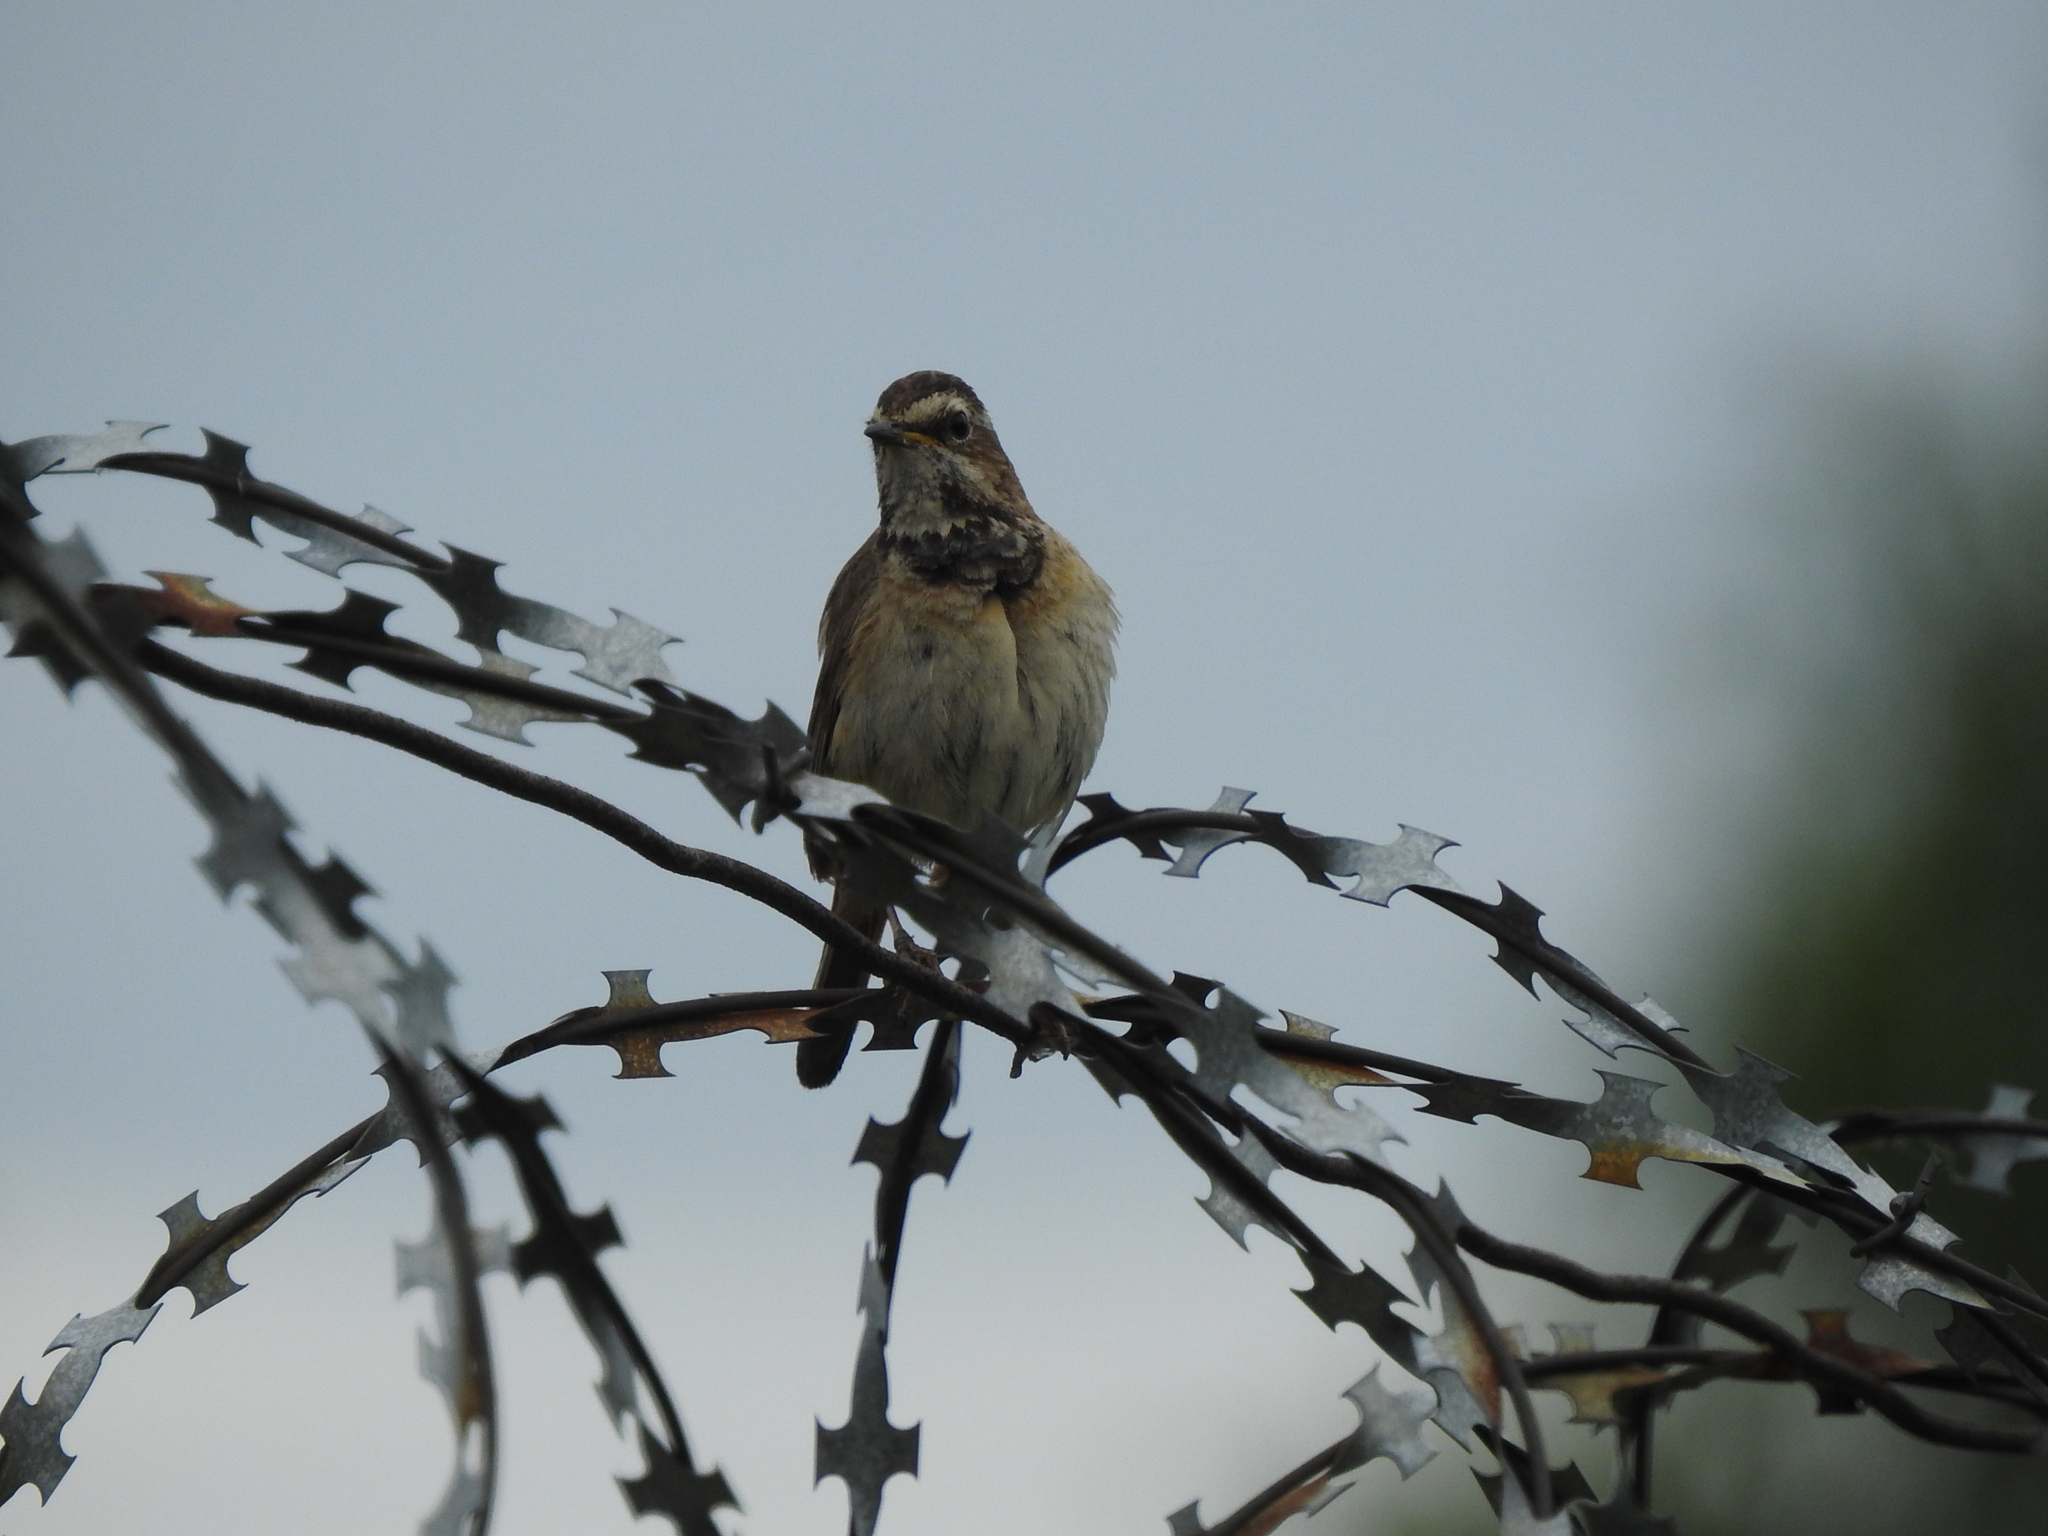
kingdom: Animalia
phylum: Chordata
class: Aves
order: Passeriformes
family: Muscicapidae
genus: Luscinia
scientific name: Luscinia svecica
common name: Bluethroat
